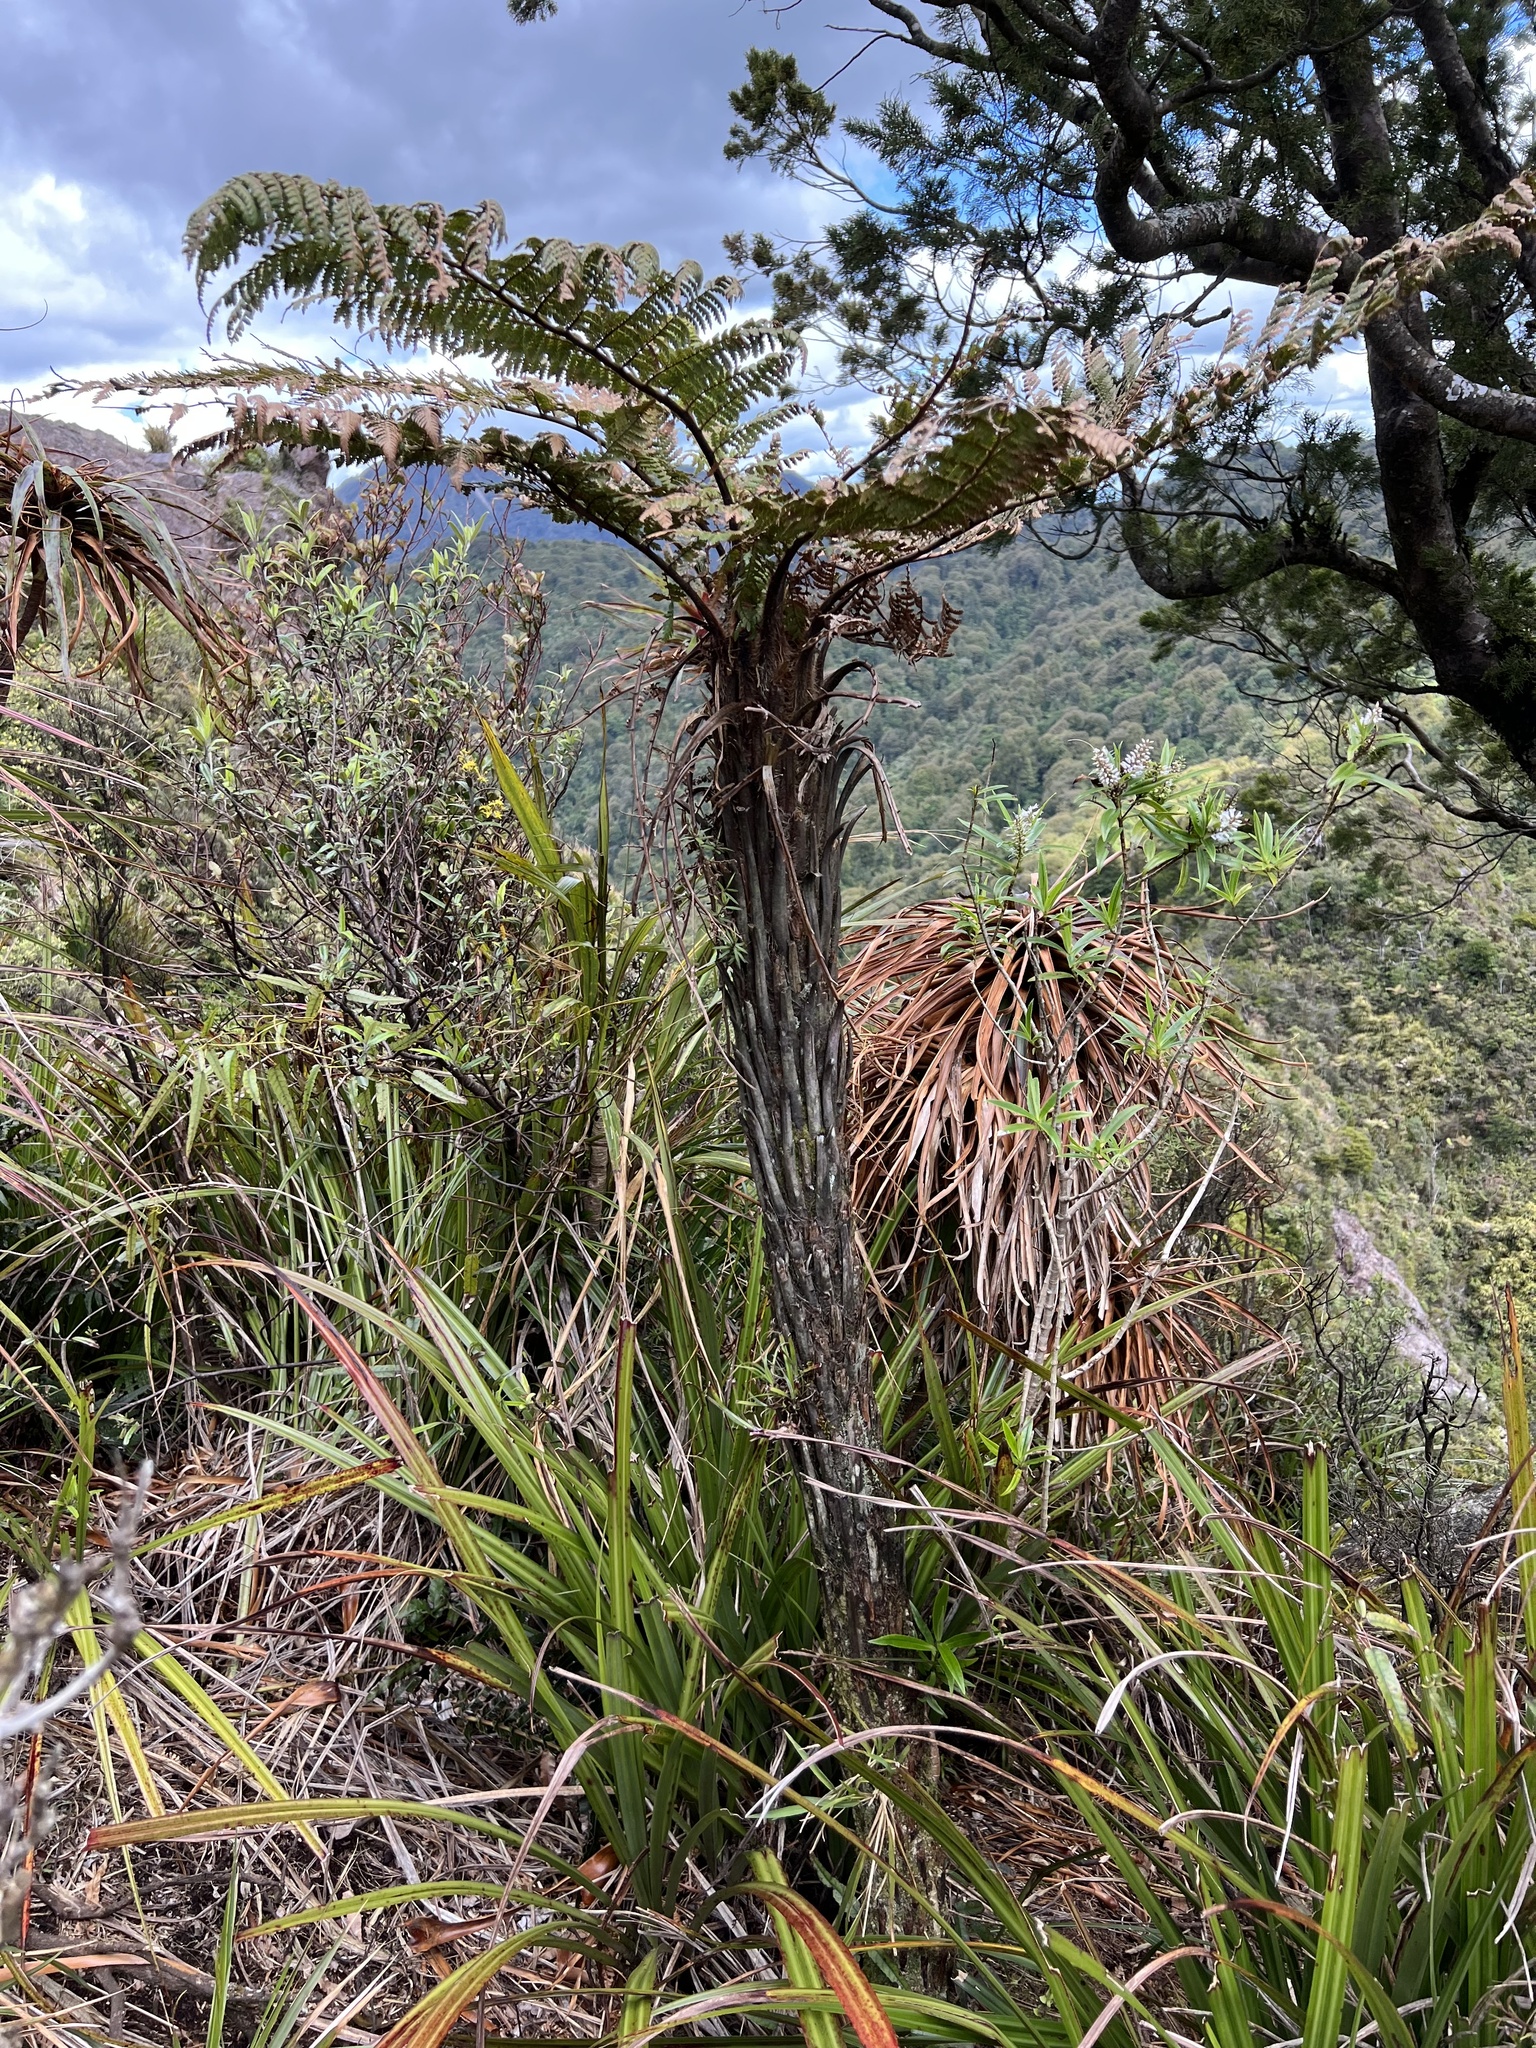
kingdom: Plantae
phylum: Tracheophyta
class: Polypodiopsida
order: Cyatheales
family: Dicksoniaceae
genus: Dicksonia
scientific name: Dicksonia squarrosa
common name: Hard treefern
